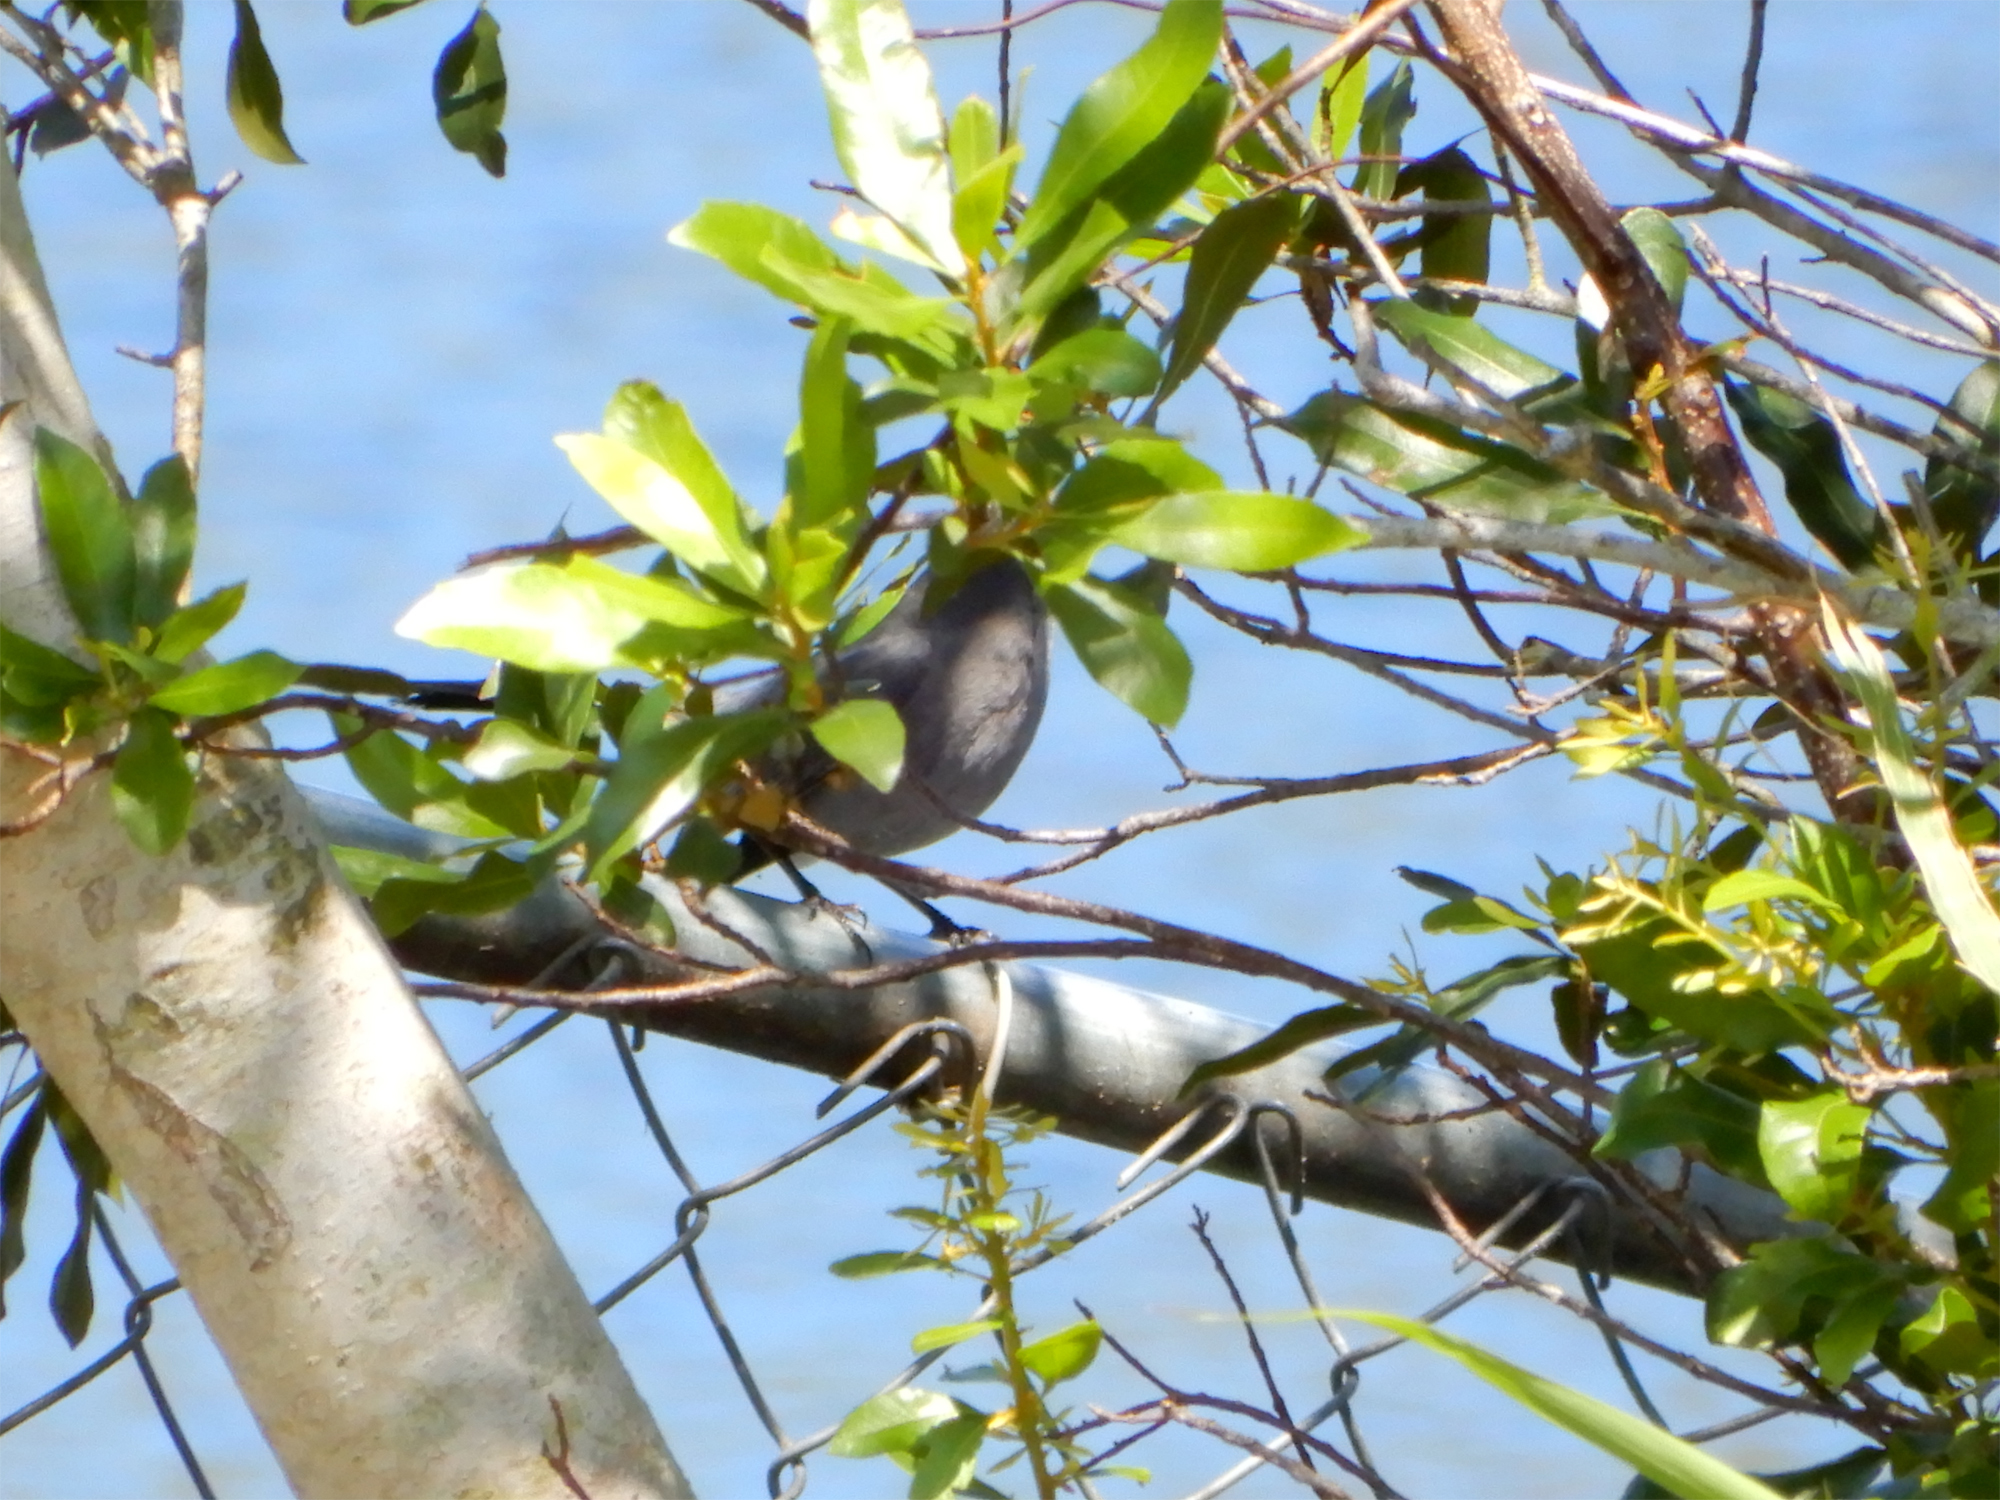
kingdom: Animalia
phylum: Chordata
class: Aves
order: Passeriformes
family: Mimidae
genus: Dumetella
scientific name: Dumetella carolinensis
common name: Gray catbird
